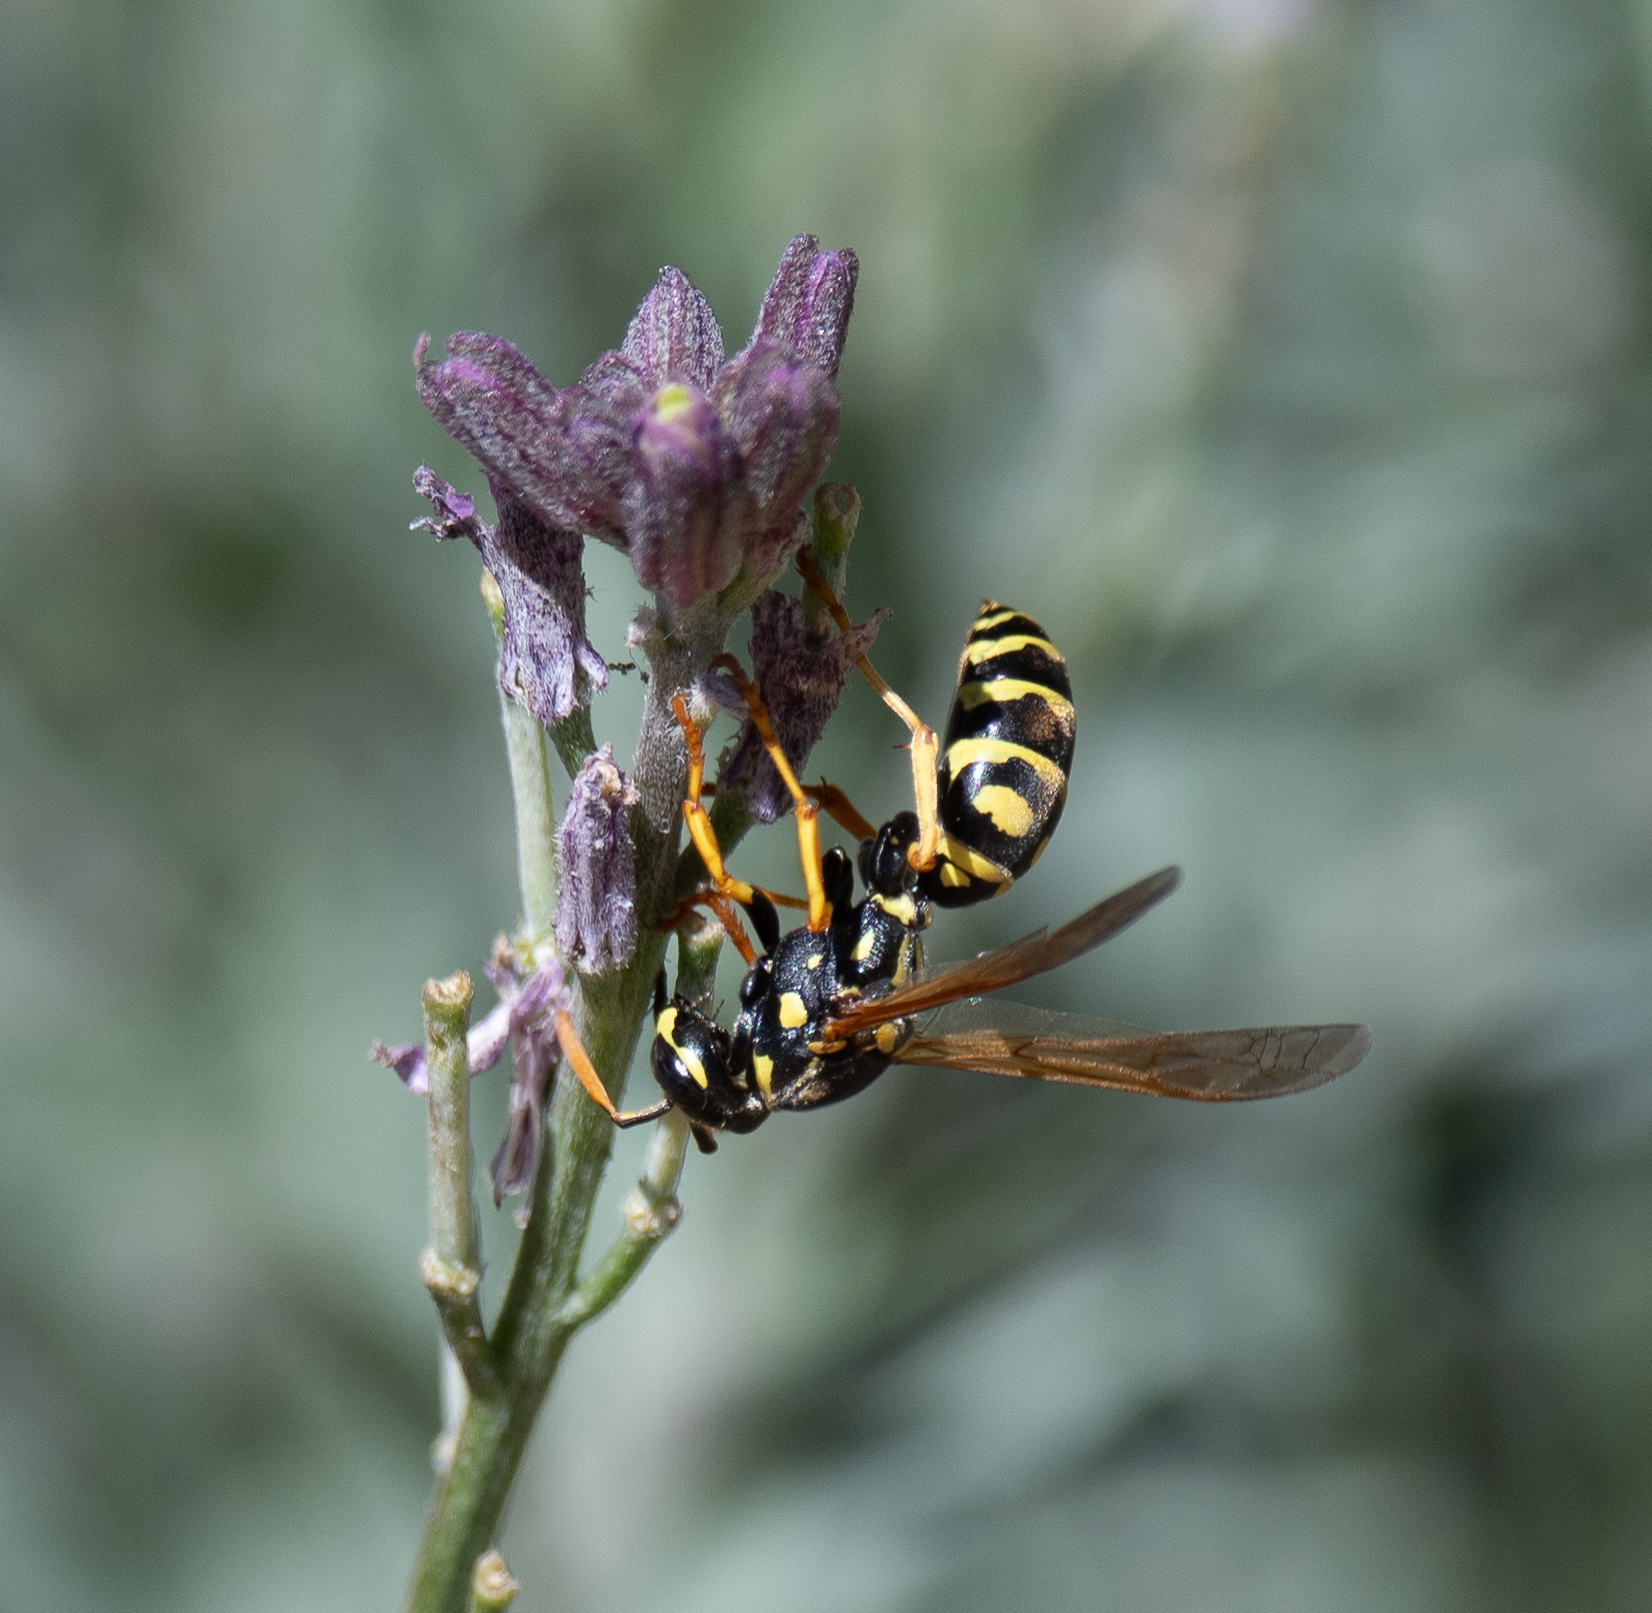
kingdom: Animalia
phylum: Arthropoda
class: Insecta
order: Hymenoptera
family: Eumenidae
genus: Polistes
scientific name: Polistes dominula
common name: Paper wasp
